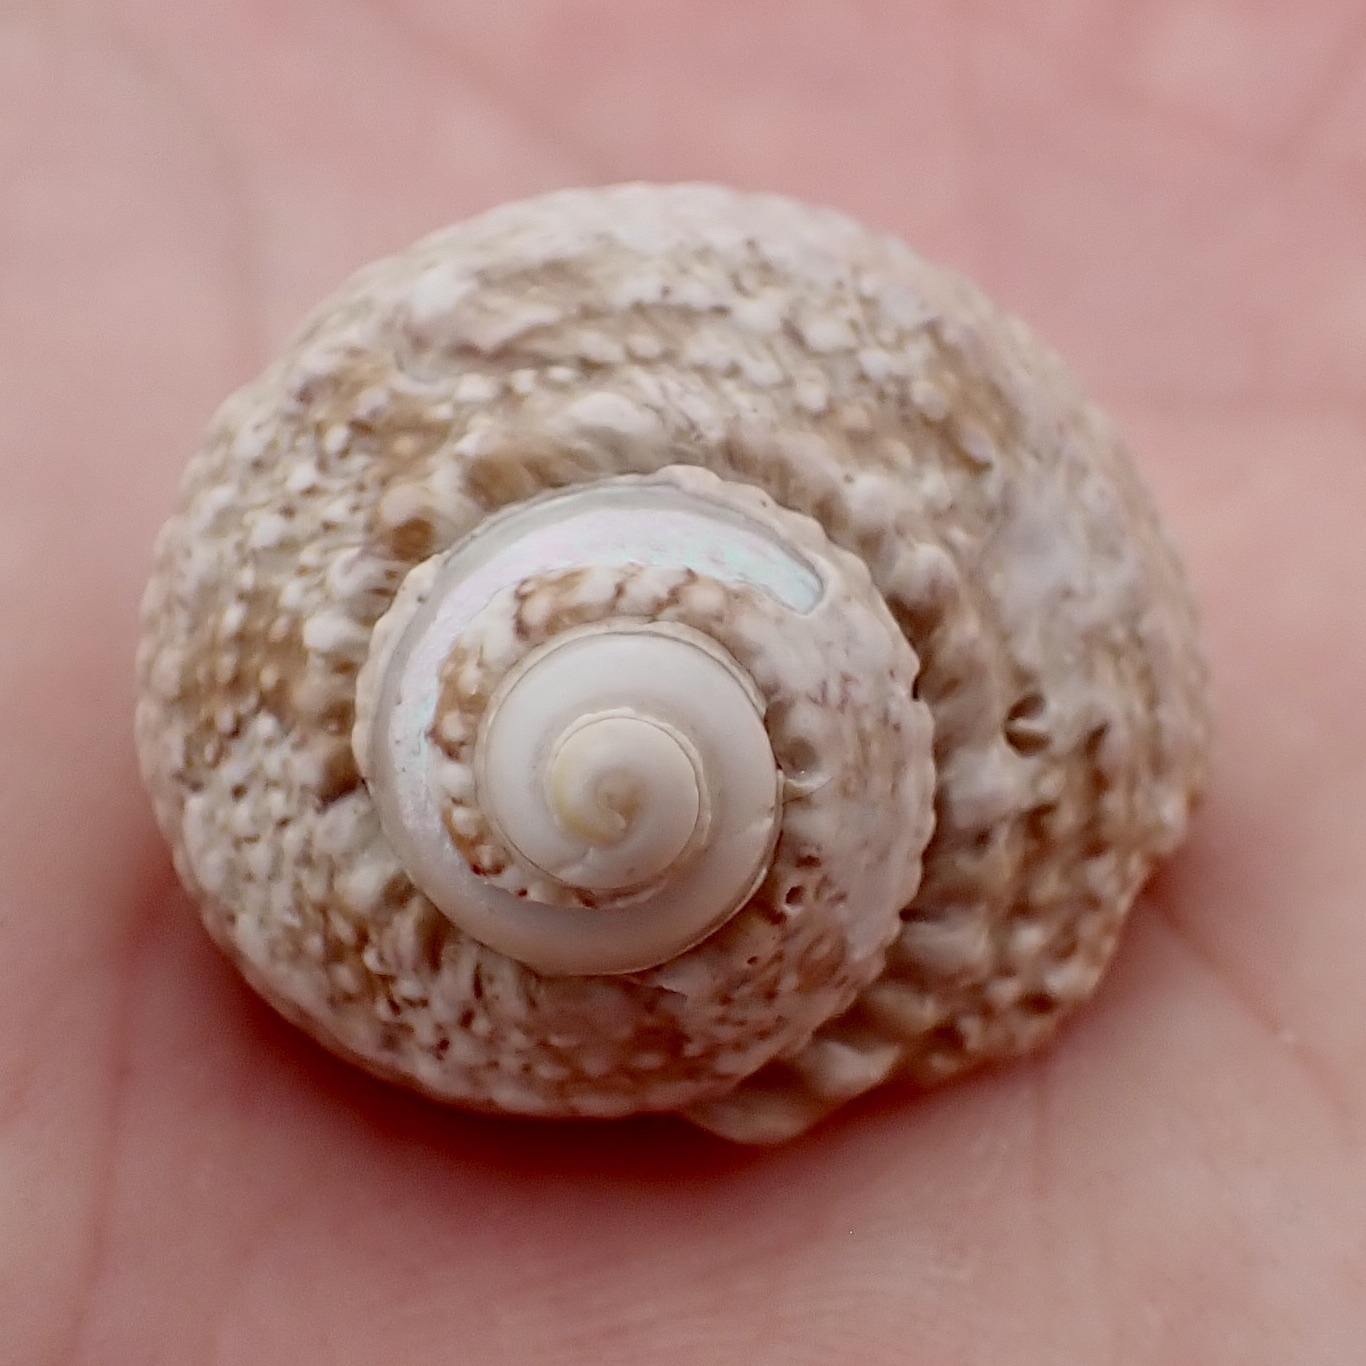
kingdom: Animalia
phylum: Mollusca
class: Gastropoda
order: Trochida
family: Turbinidae
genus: Turbo
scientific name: Turbo castanea
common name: Chestnut turban
